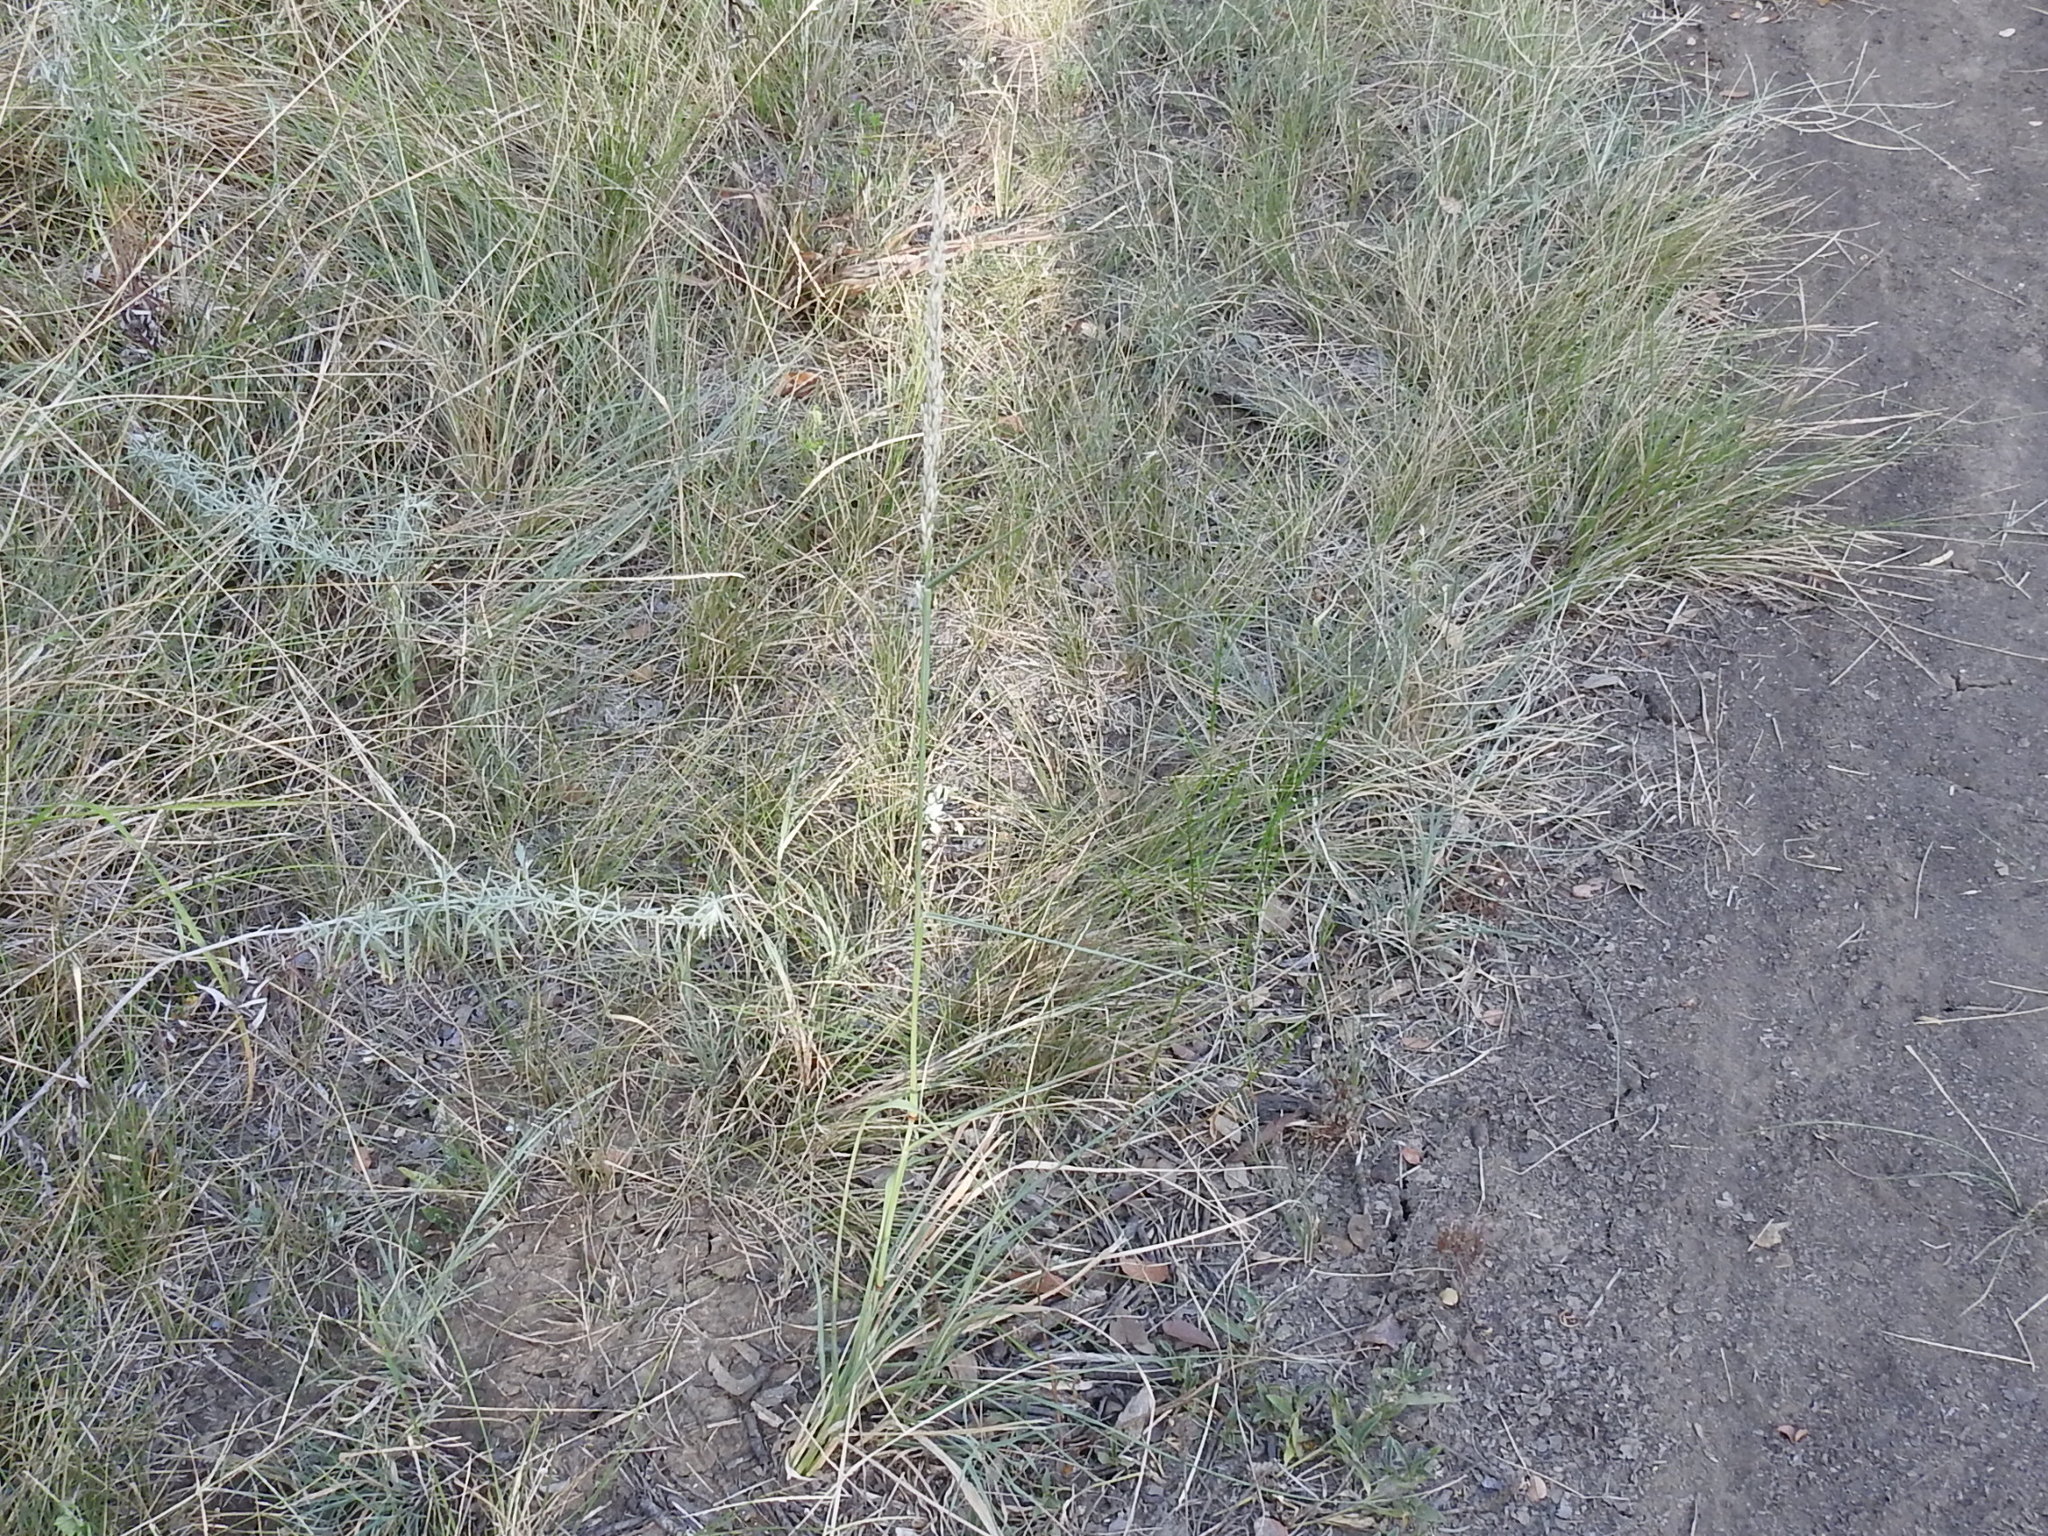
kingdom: Plantae
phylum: Tracheophyta
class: Liliopsida
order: Poales
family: Poaceae
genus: Tridens
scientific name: Tridens albescens
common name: White tridens
